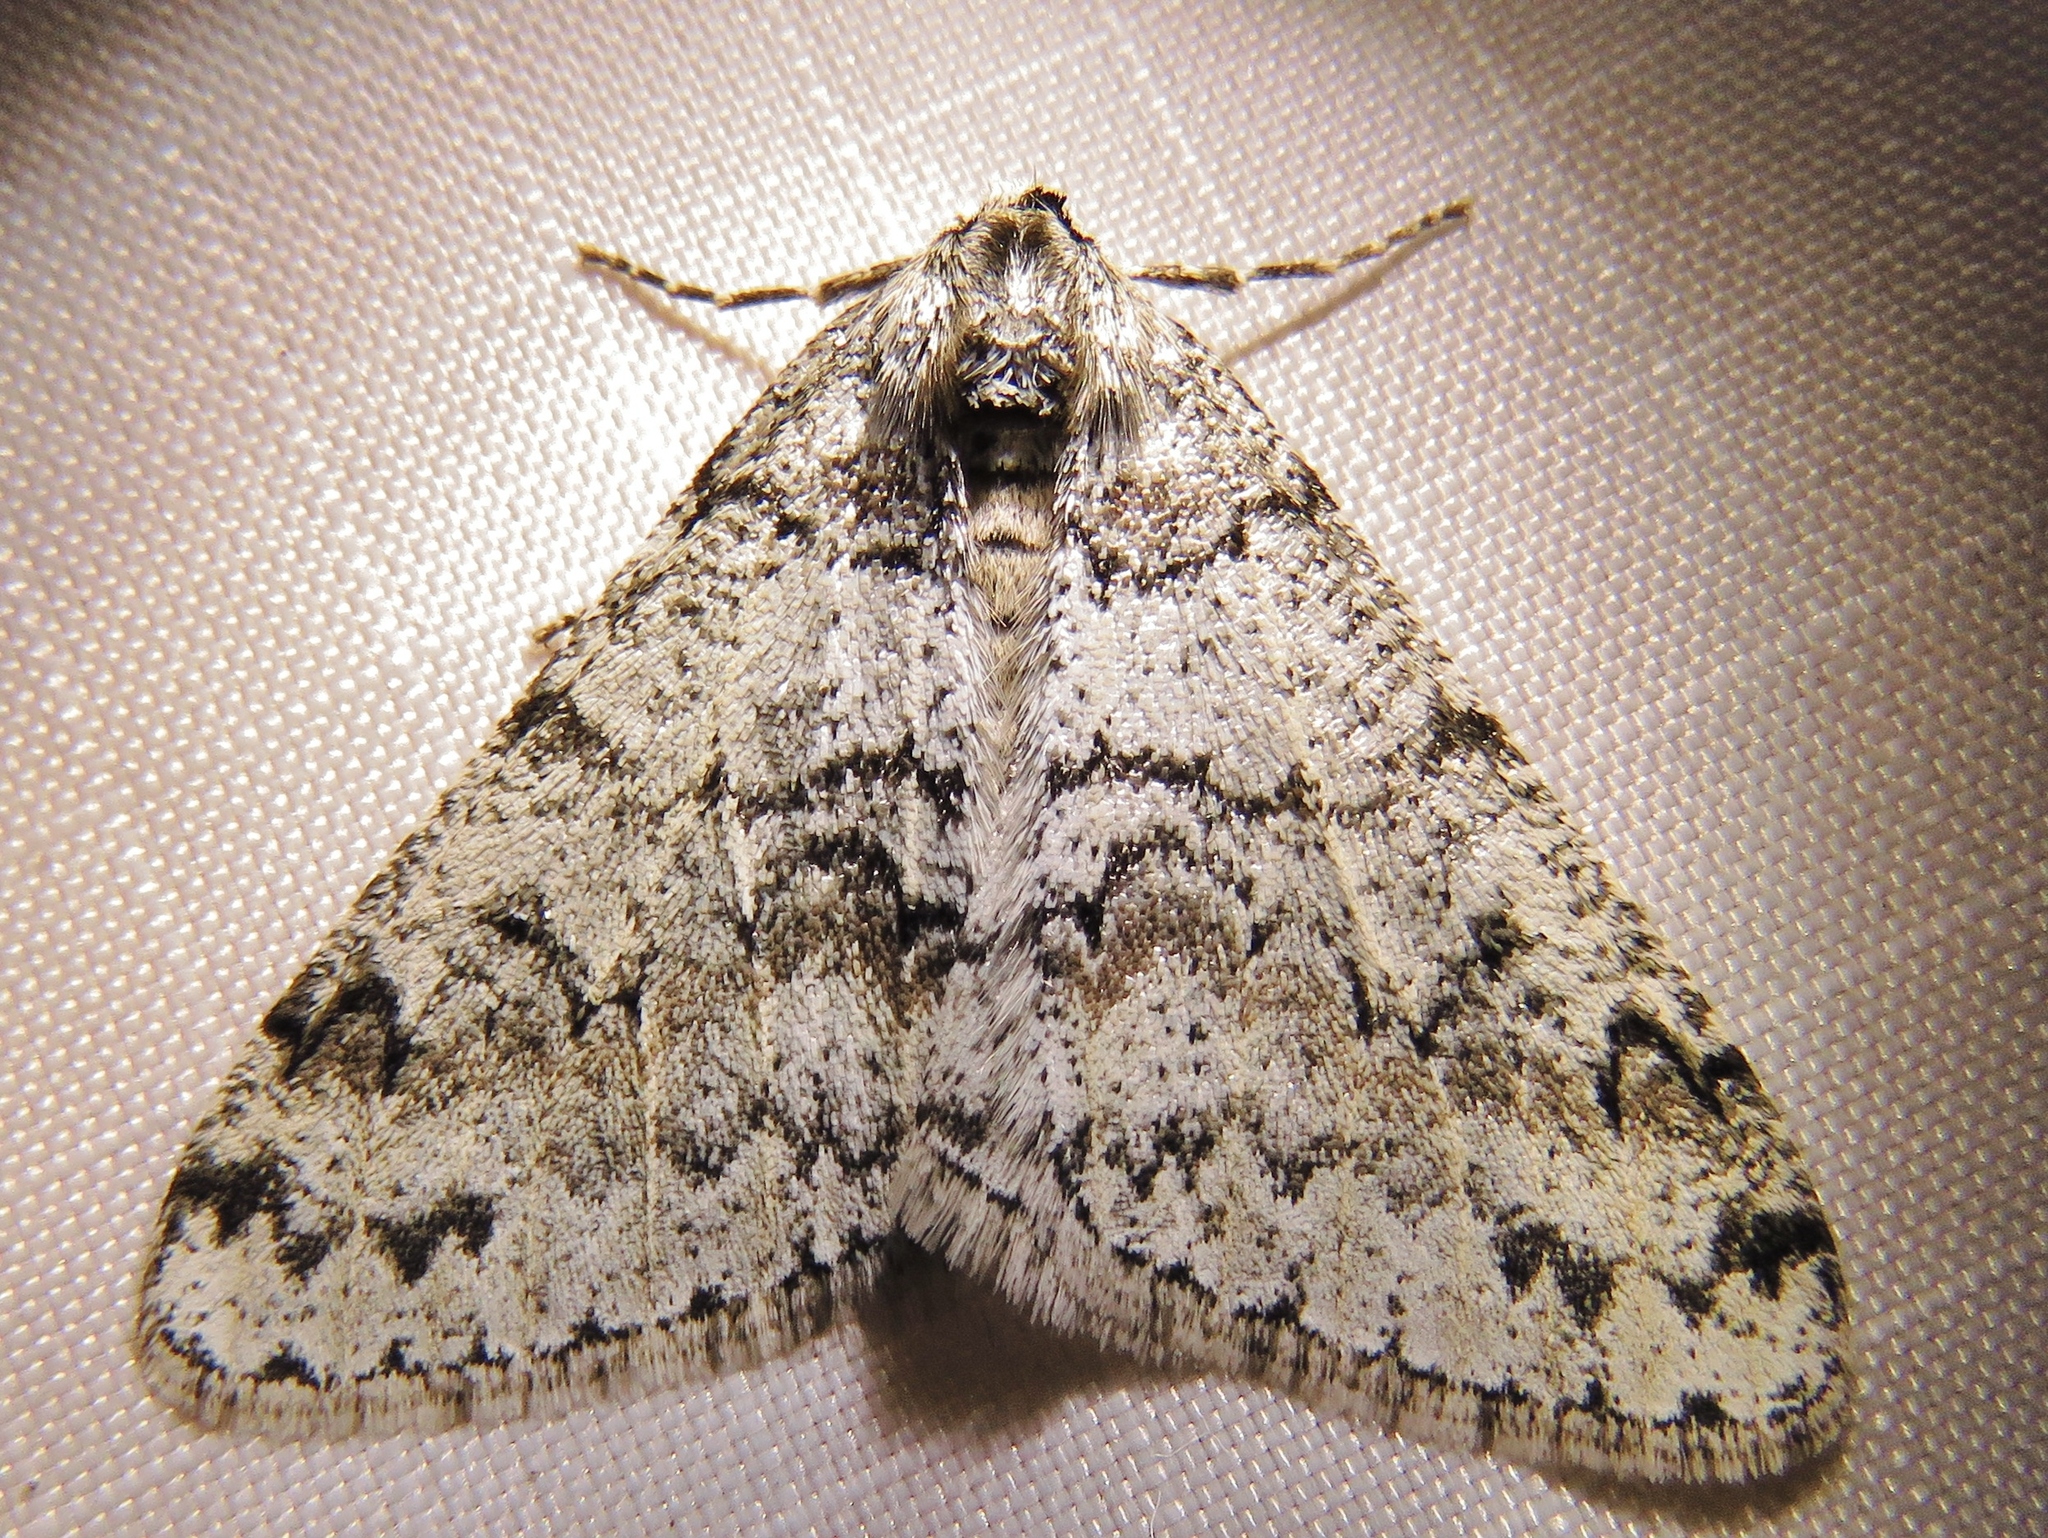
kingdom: Animalia
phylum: Arthropoda
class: Insecta
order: Lepidoptera
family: Geometridae
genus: Phigalia
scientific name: Phigalia denticulata
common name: Toothed phigalia
